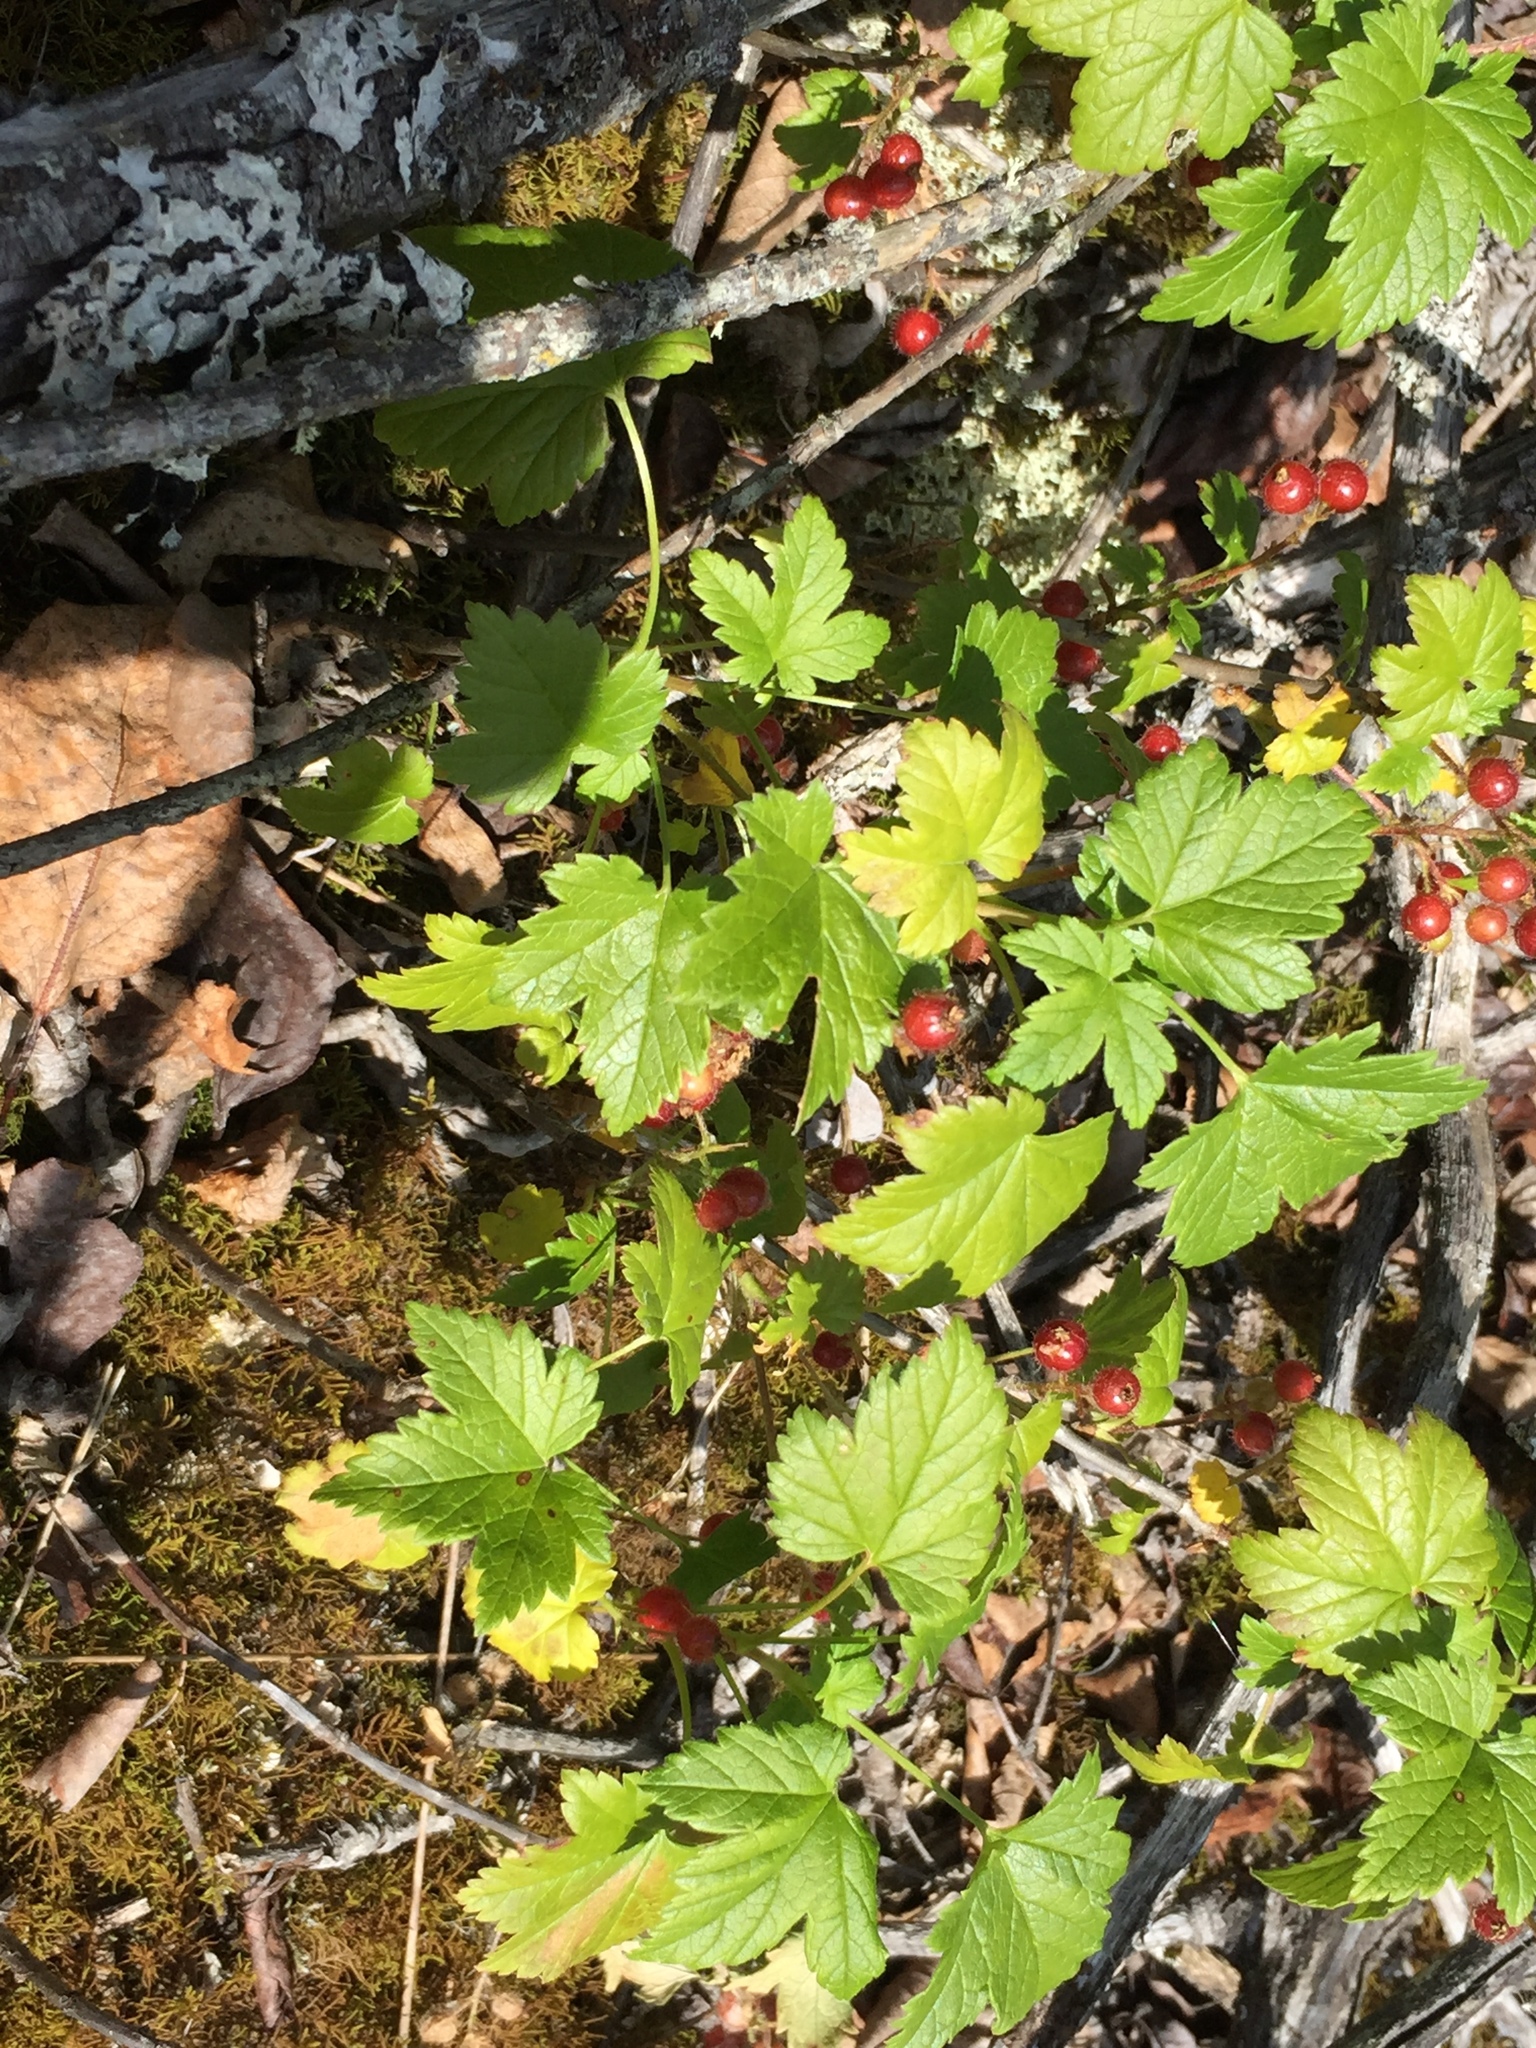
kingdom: Plantae
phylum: Tracheophyta
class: Magnoliopsida
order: Saxifragales
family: Grossulariaceae
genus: Ribes
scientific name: Ribes glandulosum
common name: Skunk currant
